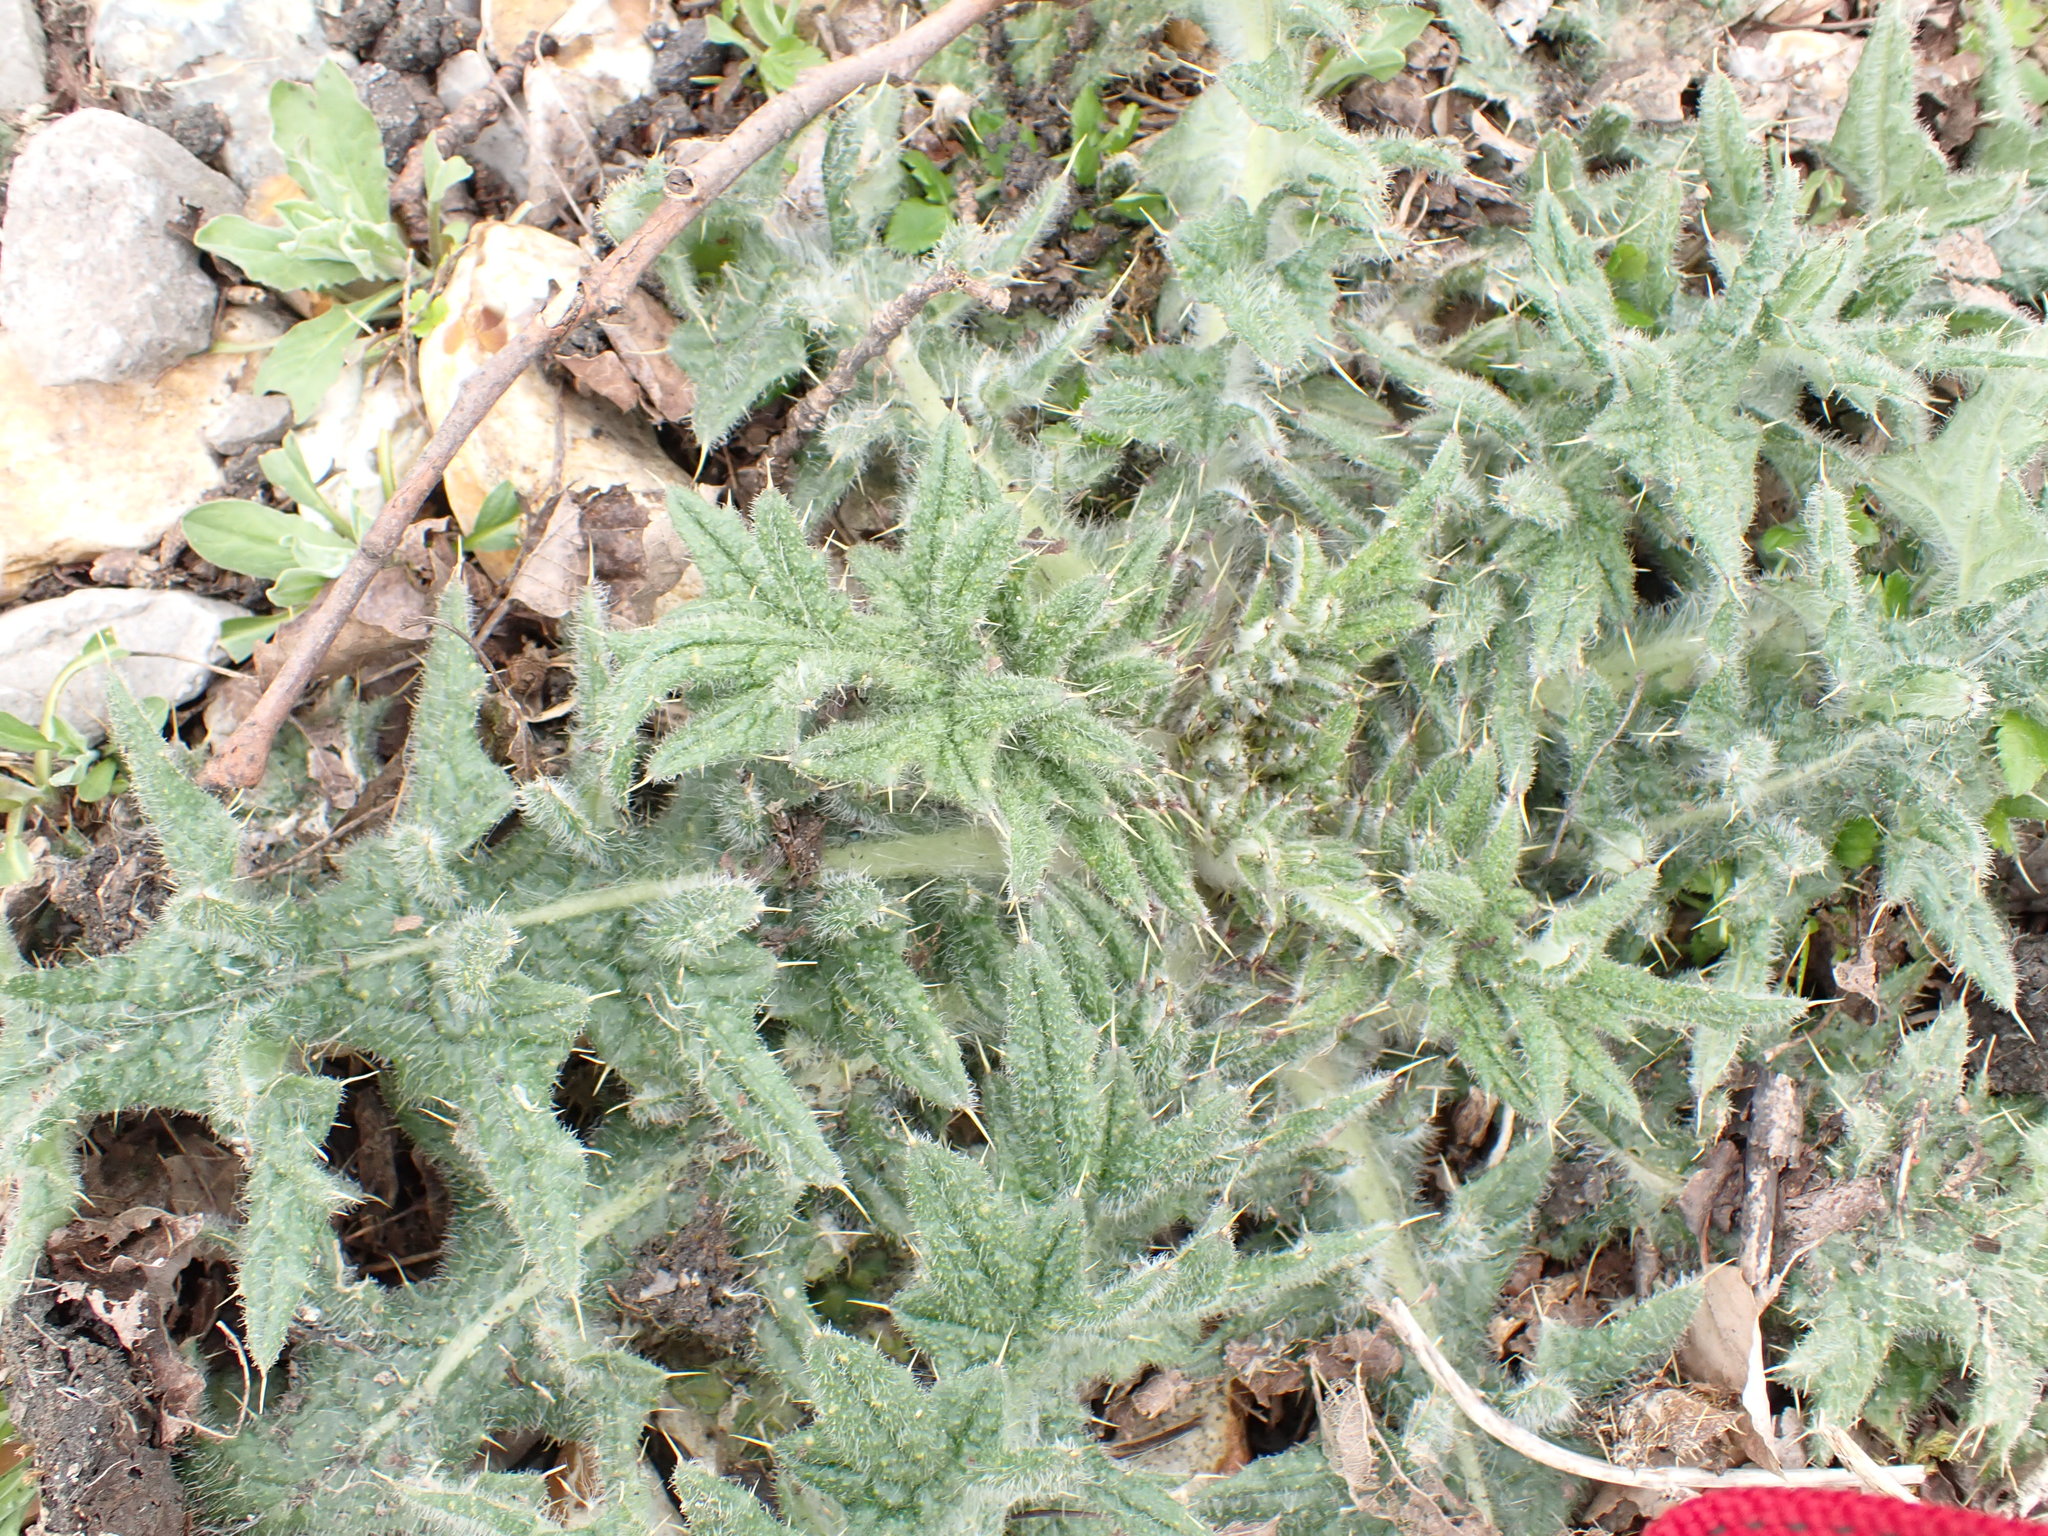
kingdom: Plantae
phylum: Tracheophyta
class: Magnoliopsida
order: Asterales
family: Asteraceae
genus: Cirsium
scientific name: Cirsium vulgare
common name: Bull thistle
